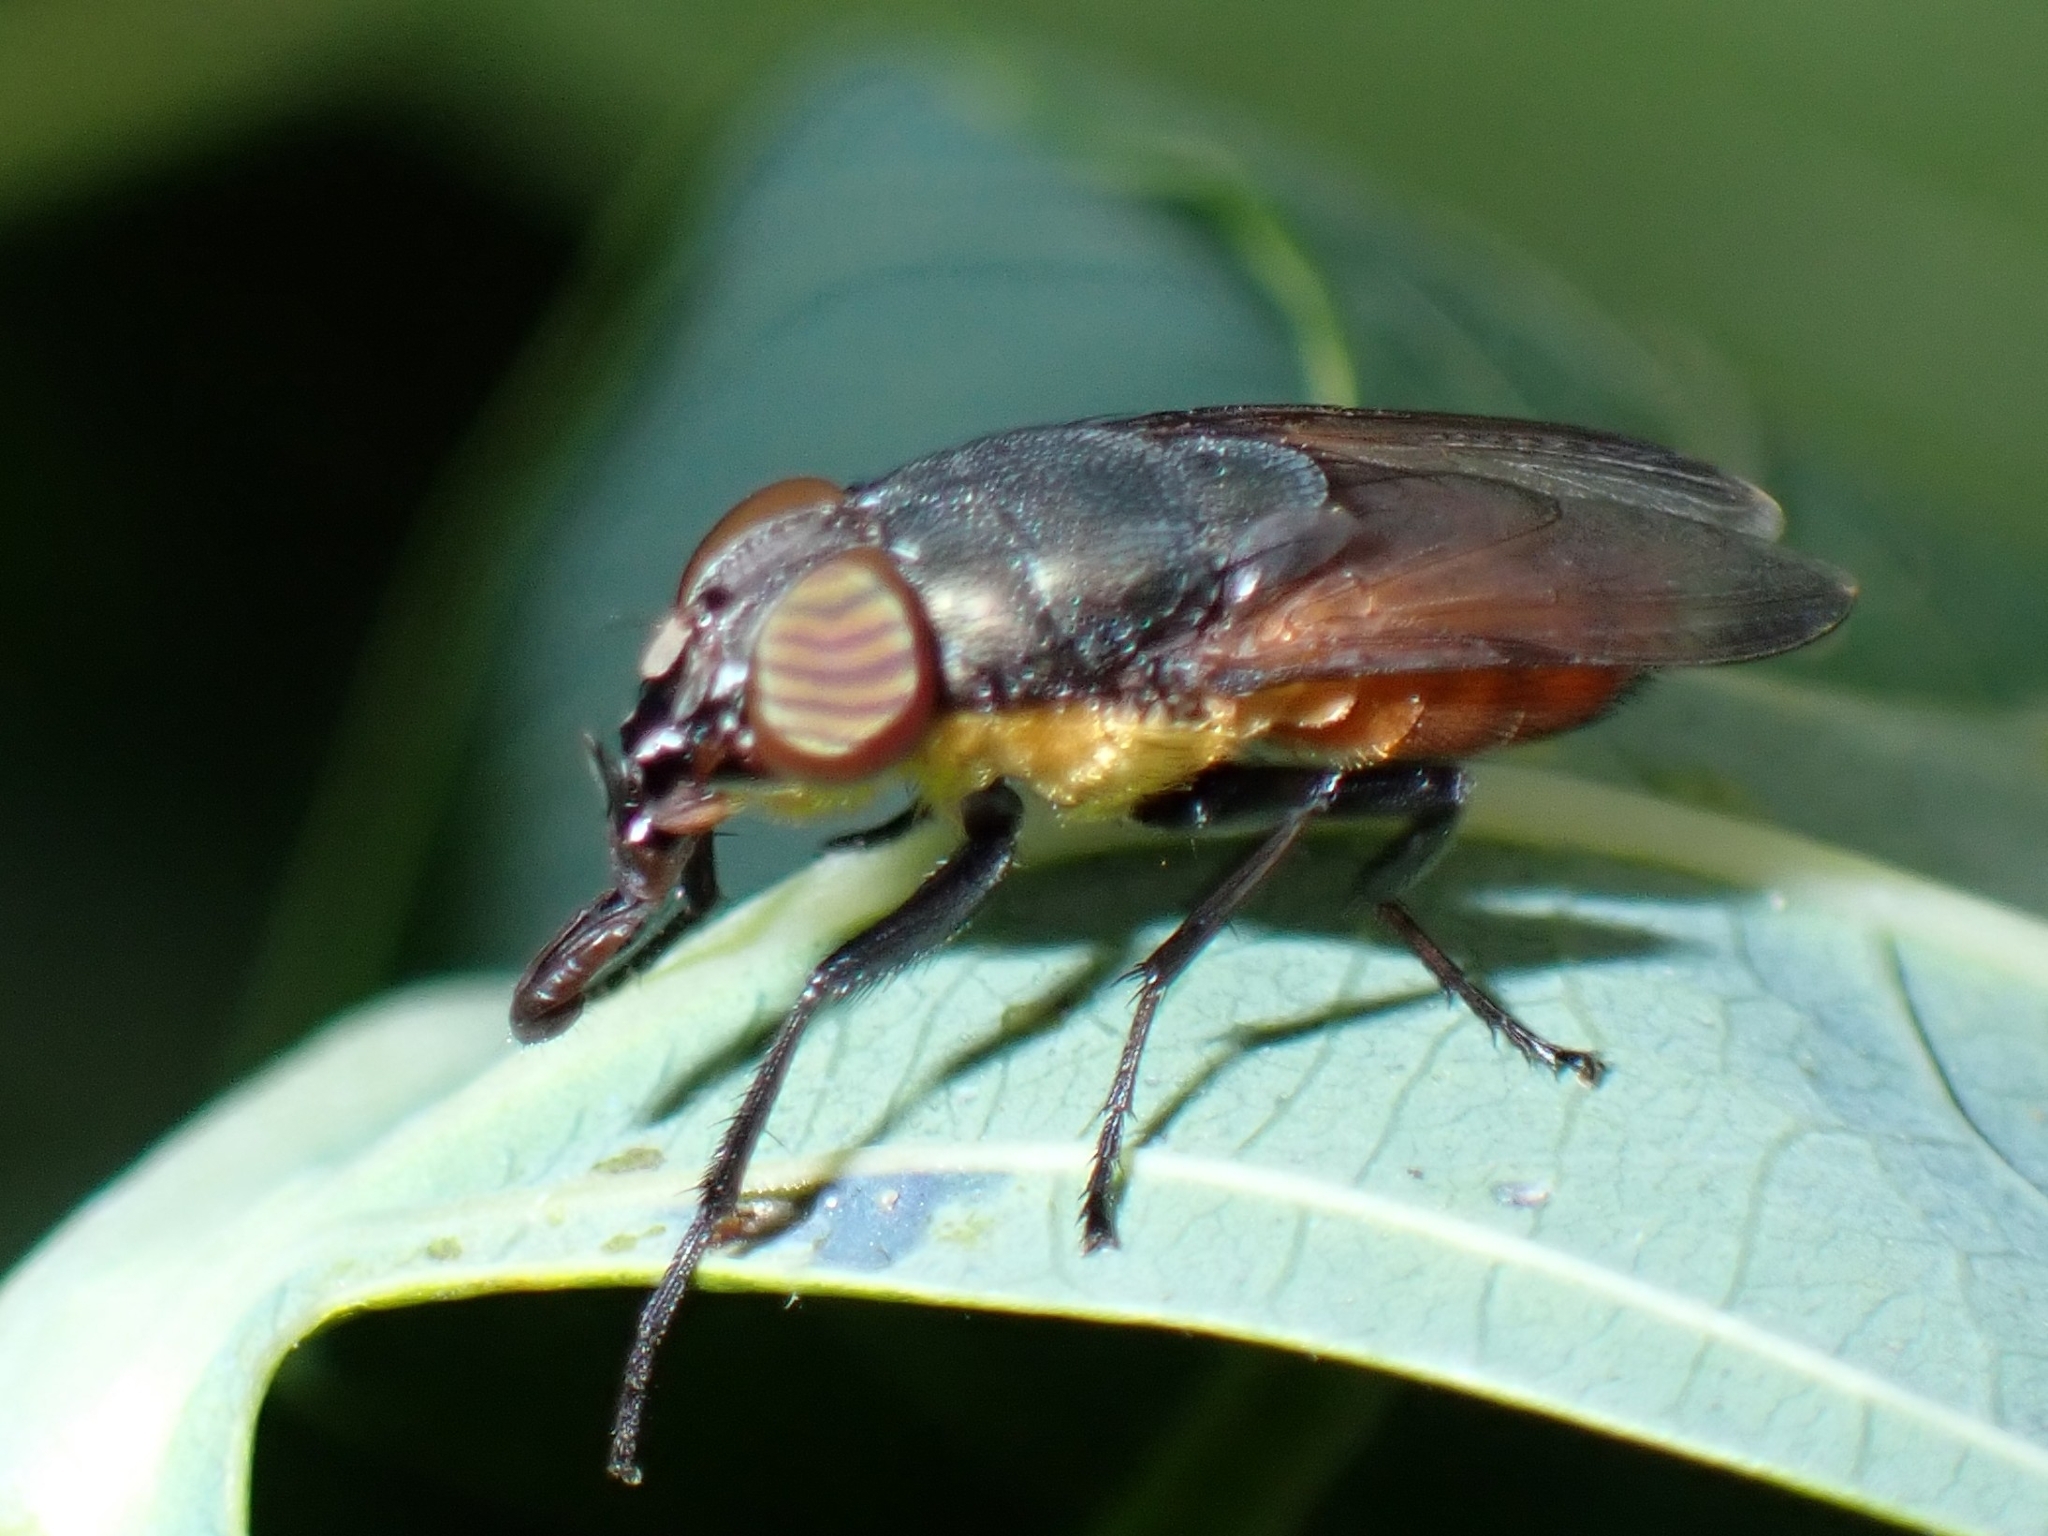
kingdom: Animalia
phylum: Arthropoda
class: Insecta
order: Diptera
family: Calliphoridae
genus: Idiellopsis
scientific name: Idiellopsis xanthogaster
